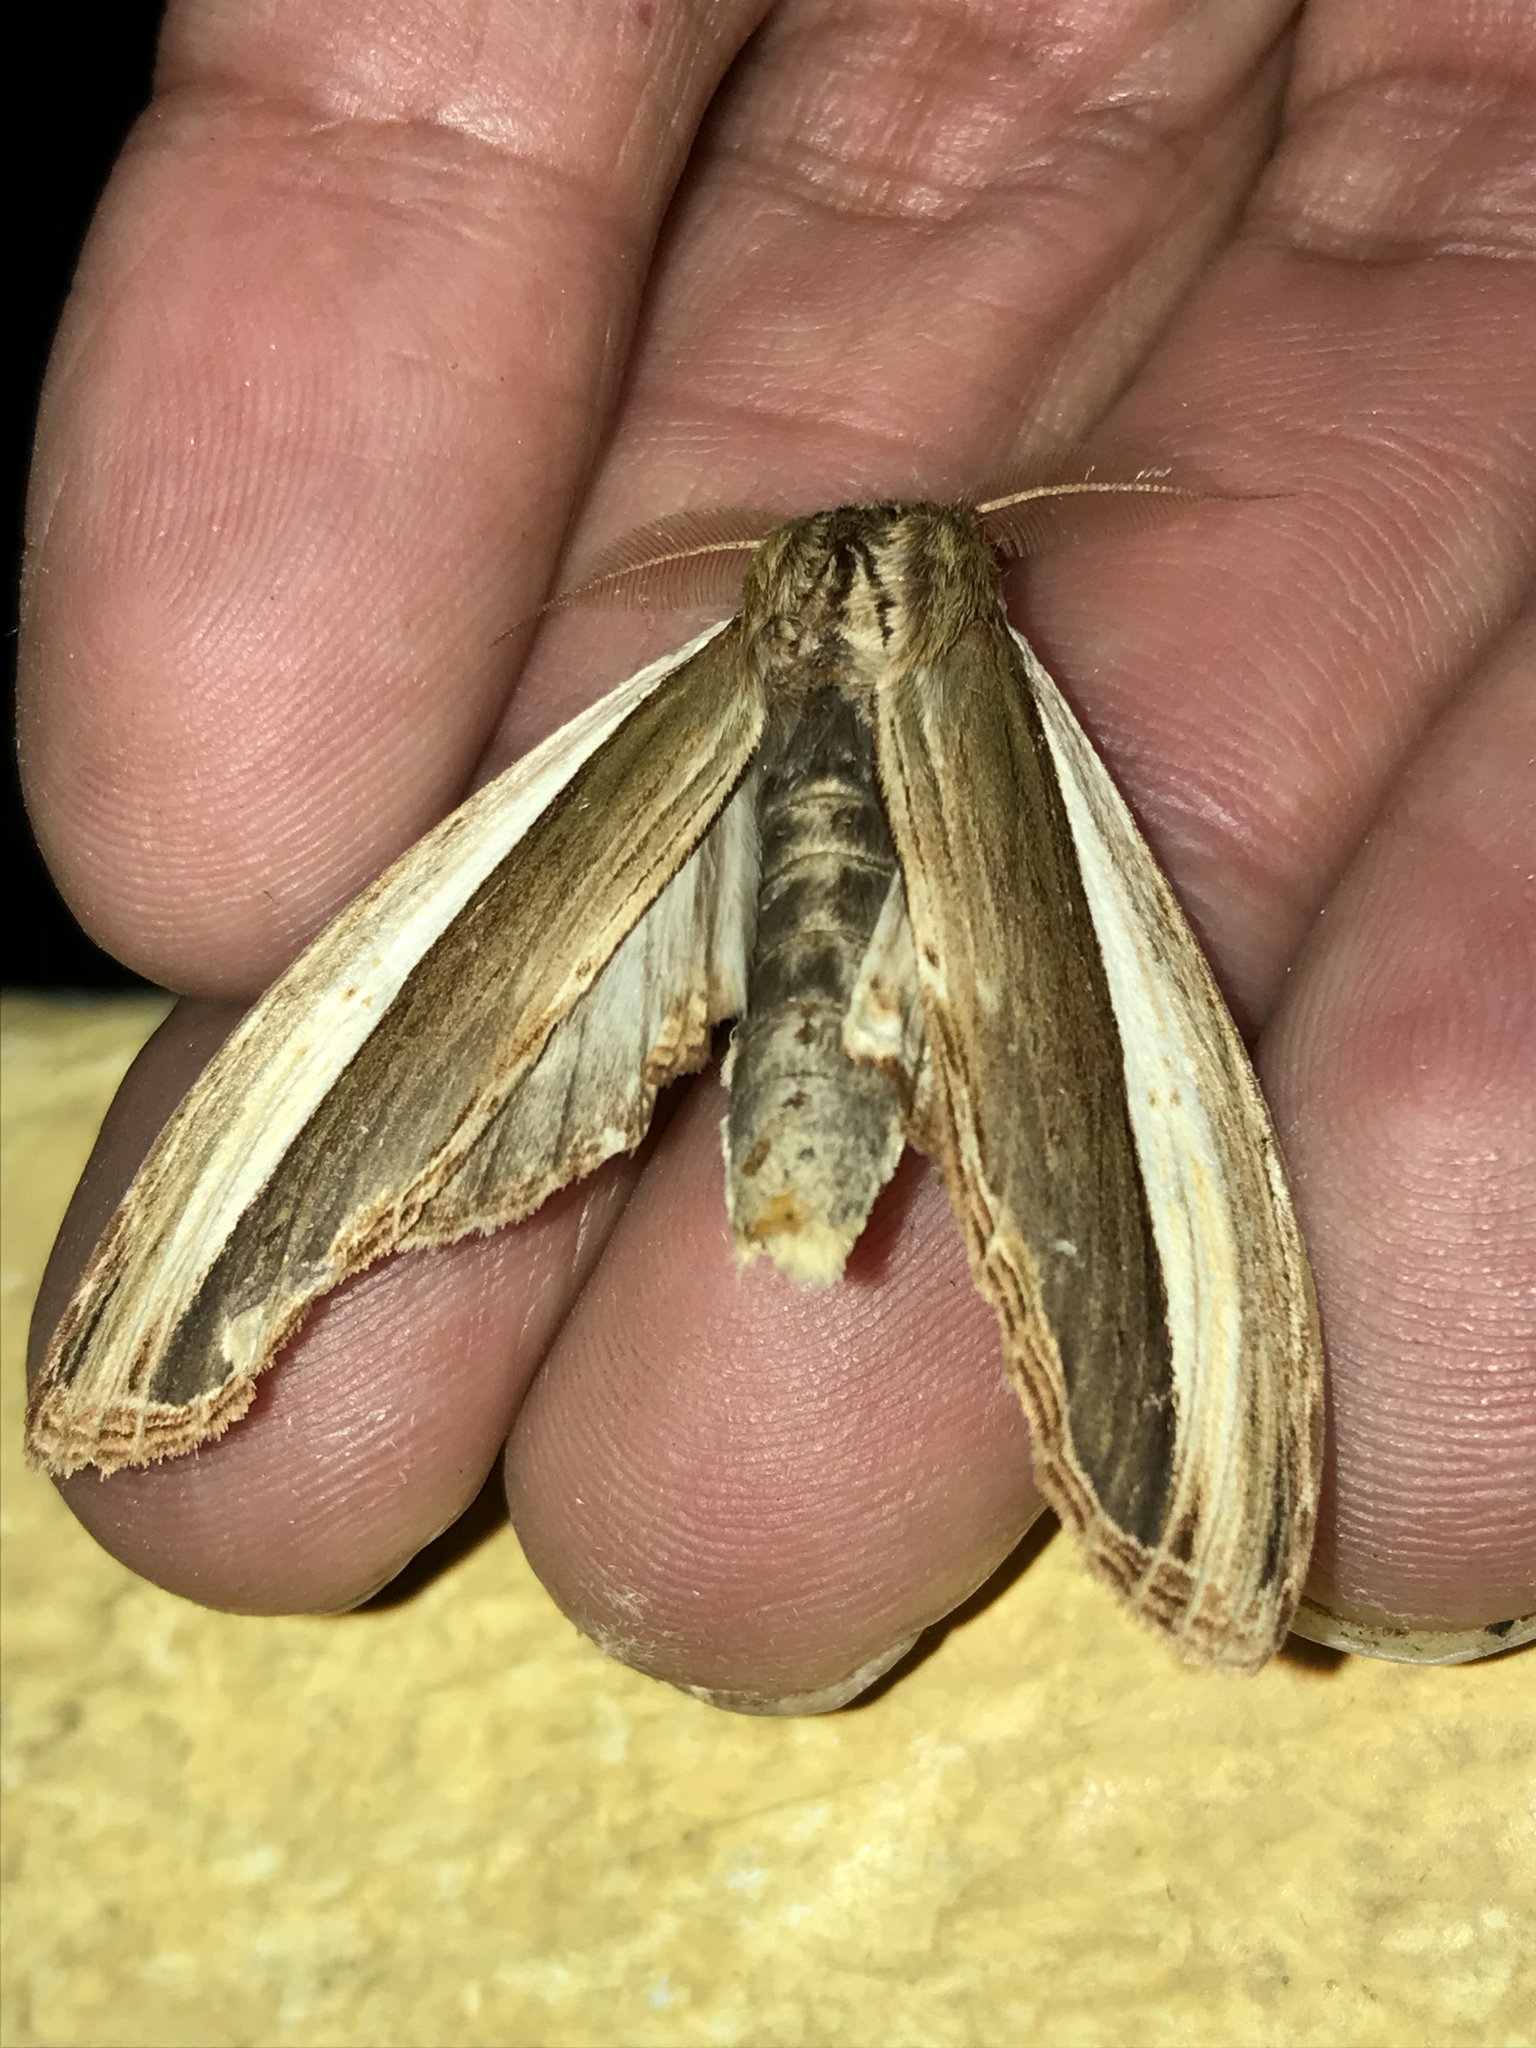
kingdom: Animalia
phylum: Arthropoda
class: Insecta
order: Lepidoptera
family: Notodontidae
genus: Truncaptera
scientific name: Truncaptera
